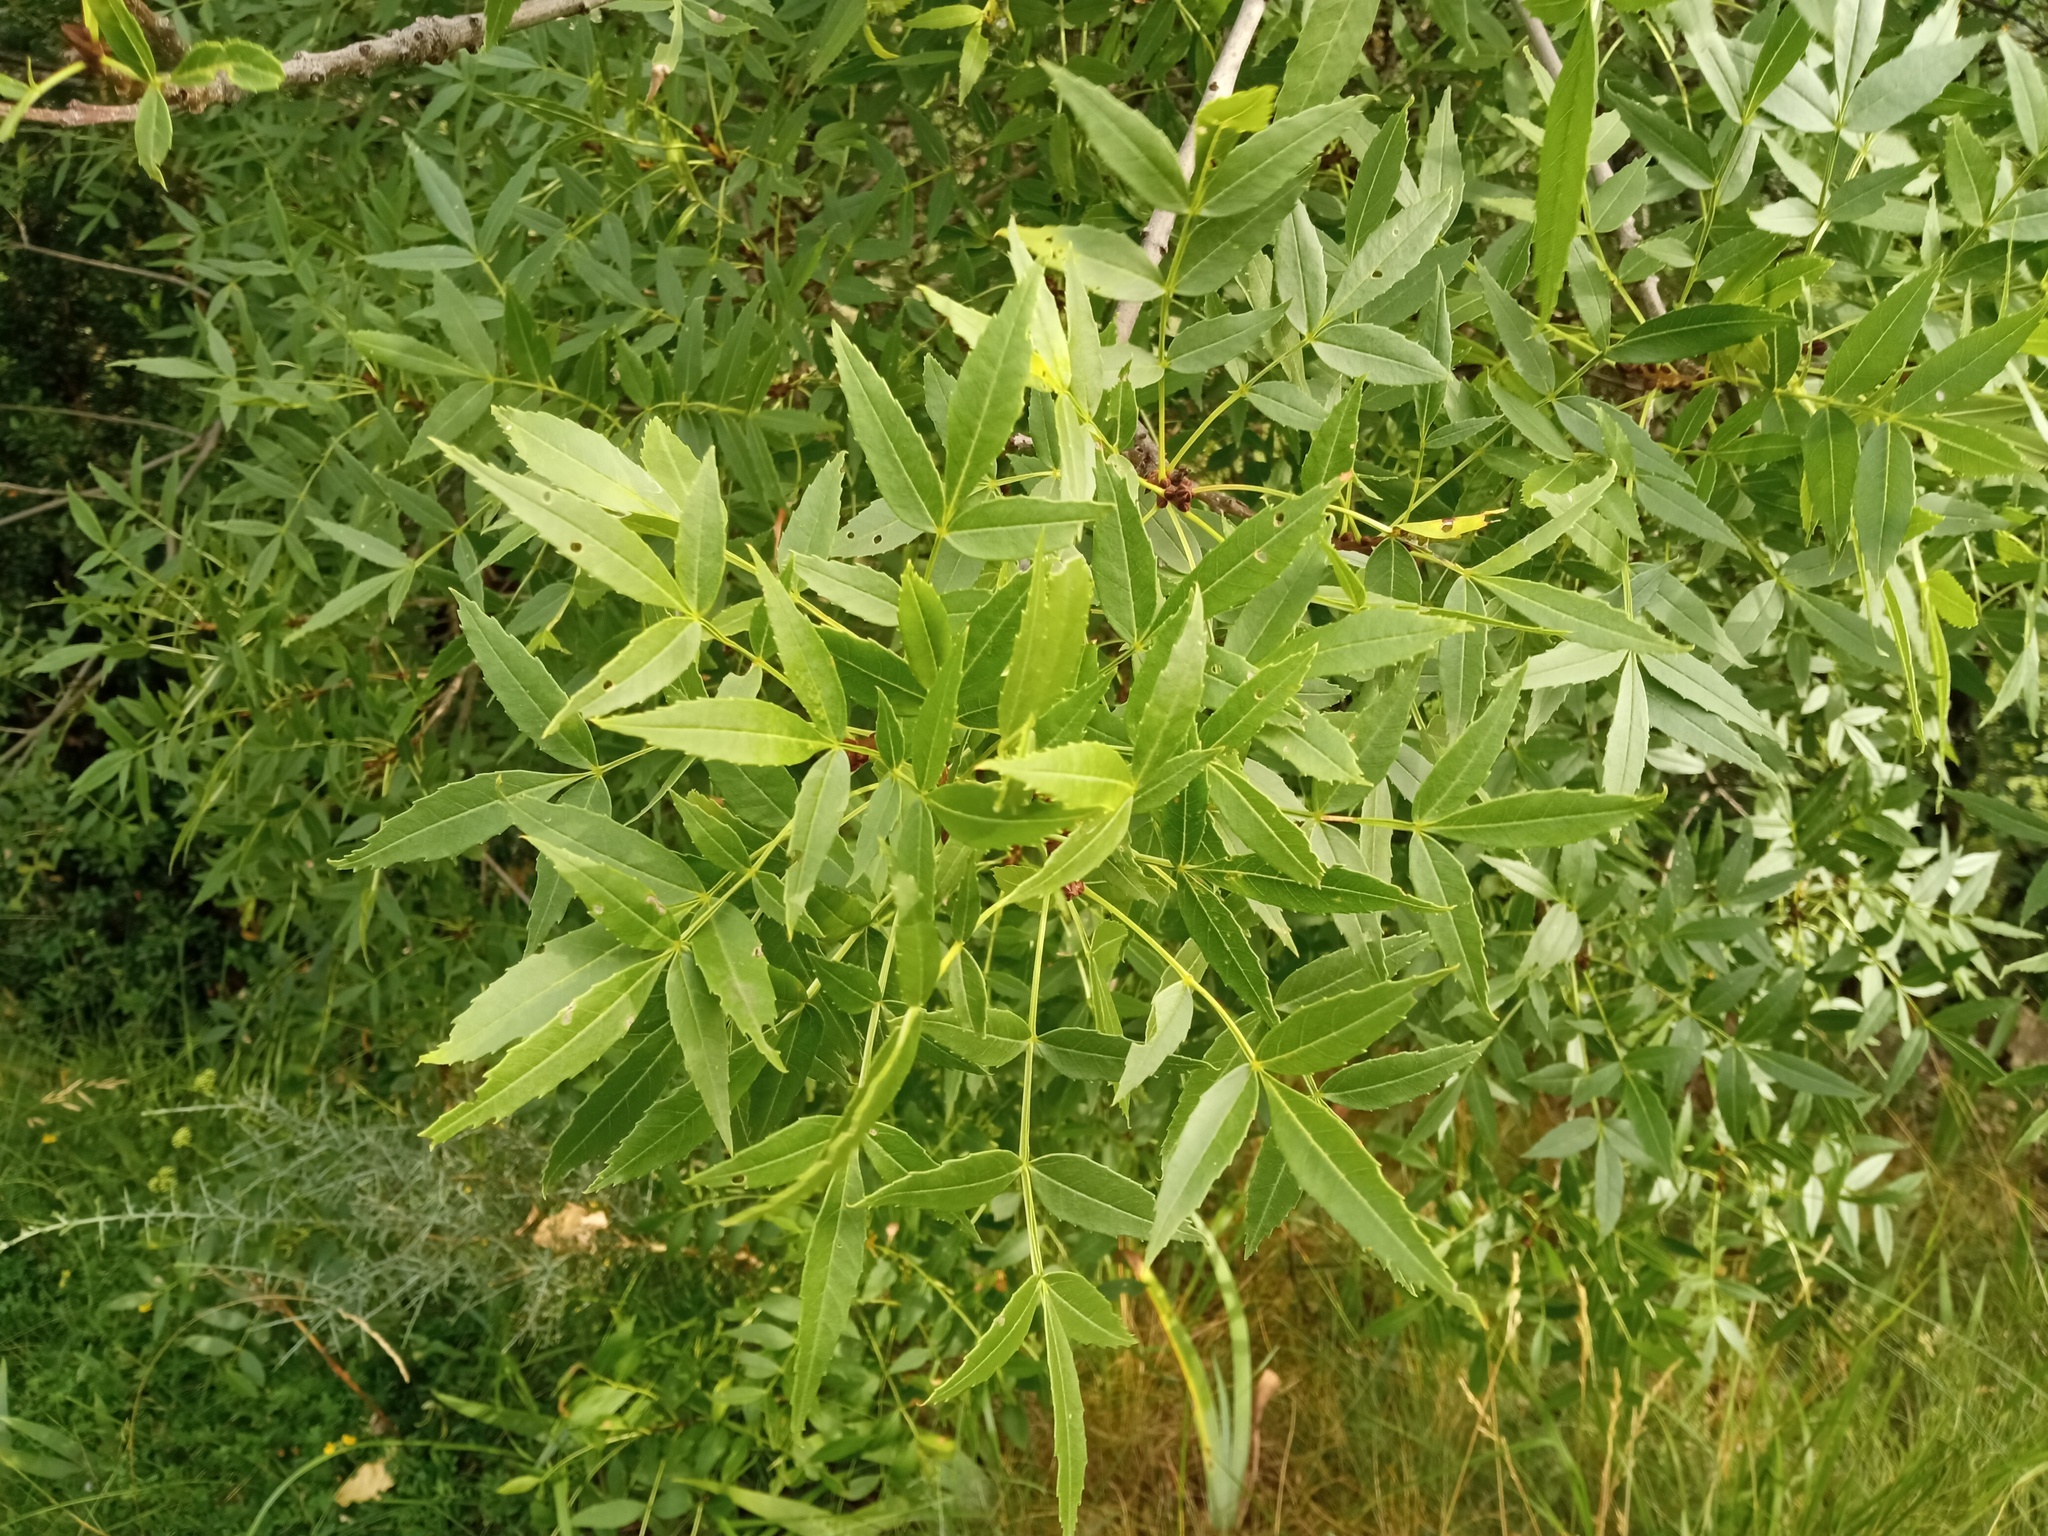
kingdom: Plantae
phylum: Tracheophyta
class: Magnoliopsida
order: Lamiales
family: Oleaceae
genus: Fraxinus
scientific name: Fraxinus angustifolia
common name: Narrow-leafed ash
